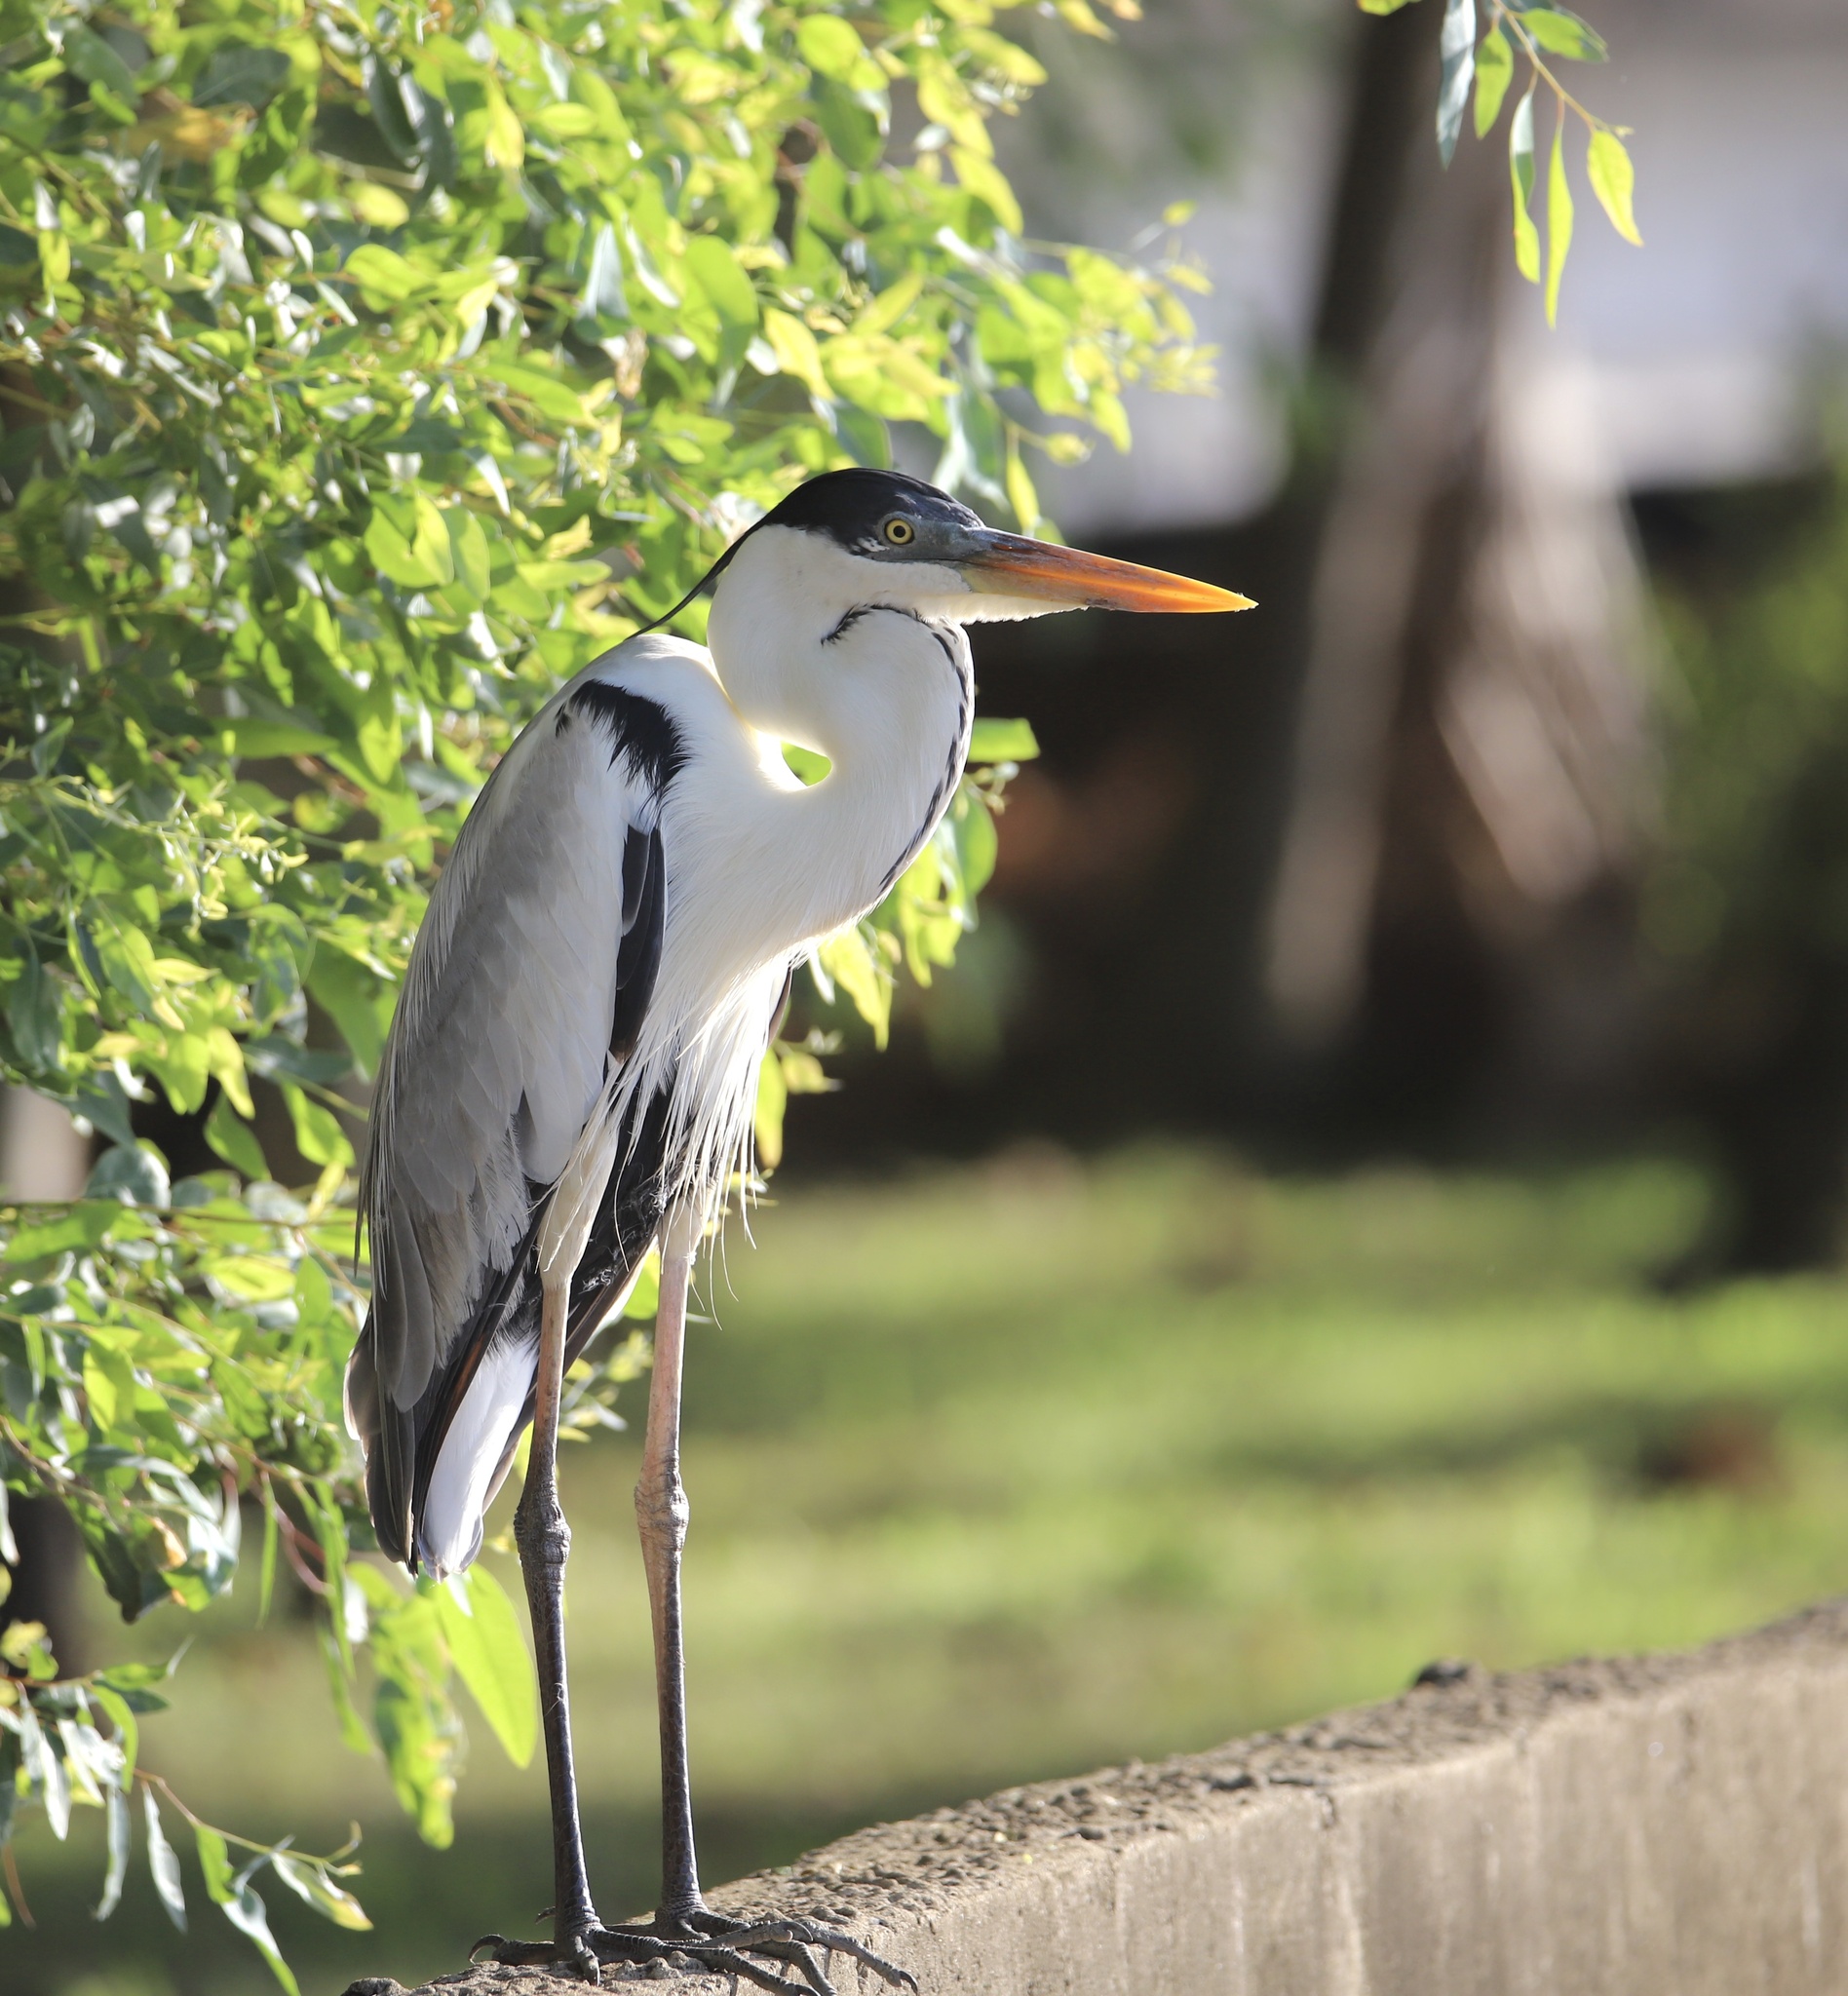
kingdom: Animalia
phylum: Chordata
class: Aves
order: Pelecaniformes
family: Ardeidae
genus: Ardea
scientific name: Ardea cocoi
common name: Cocoi heron
